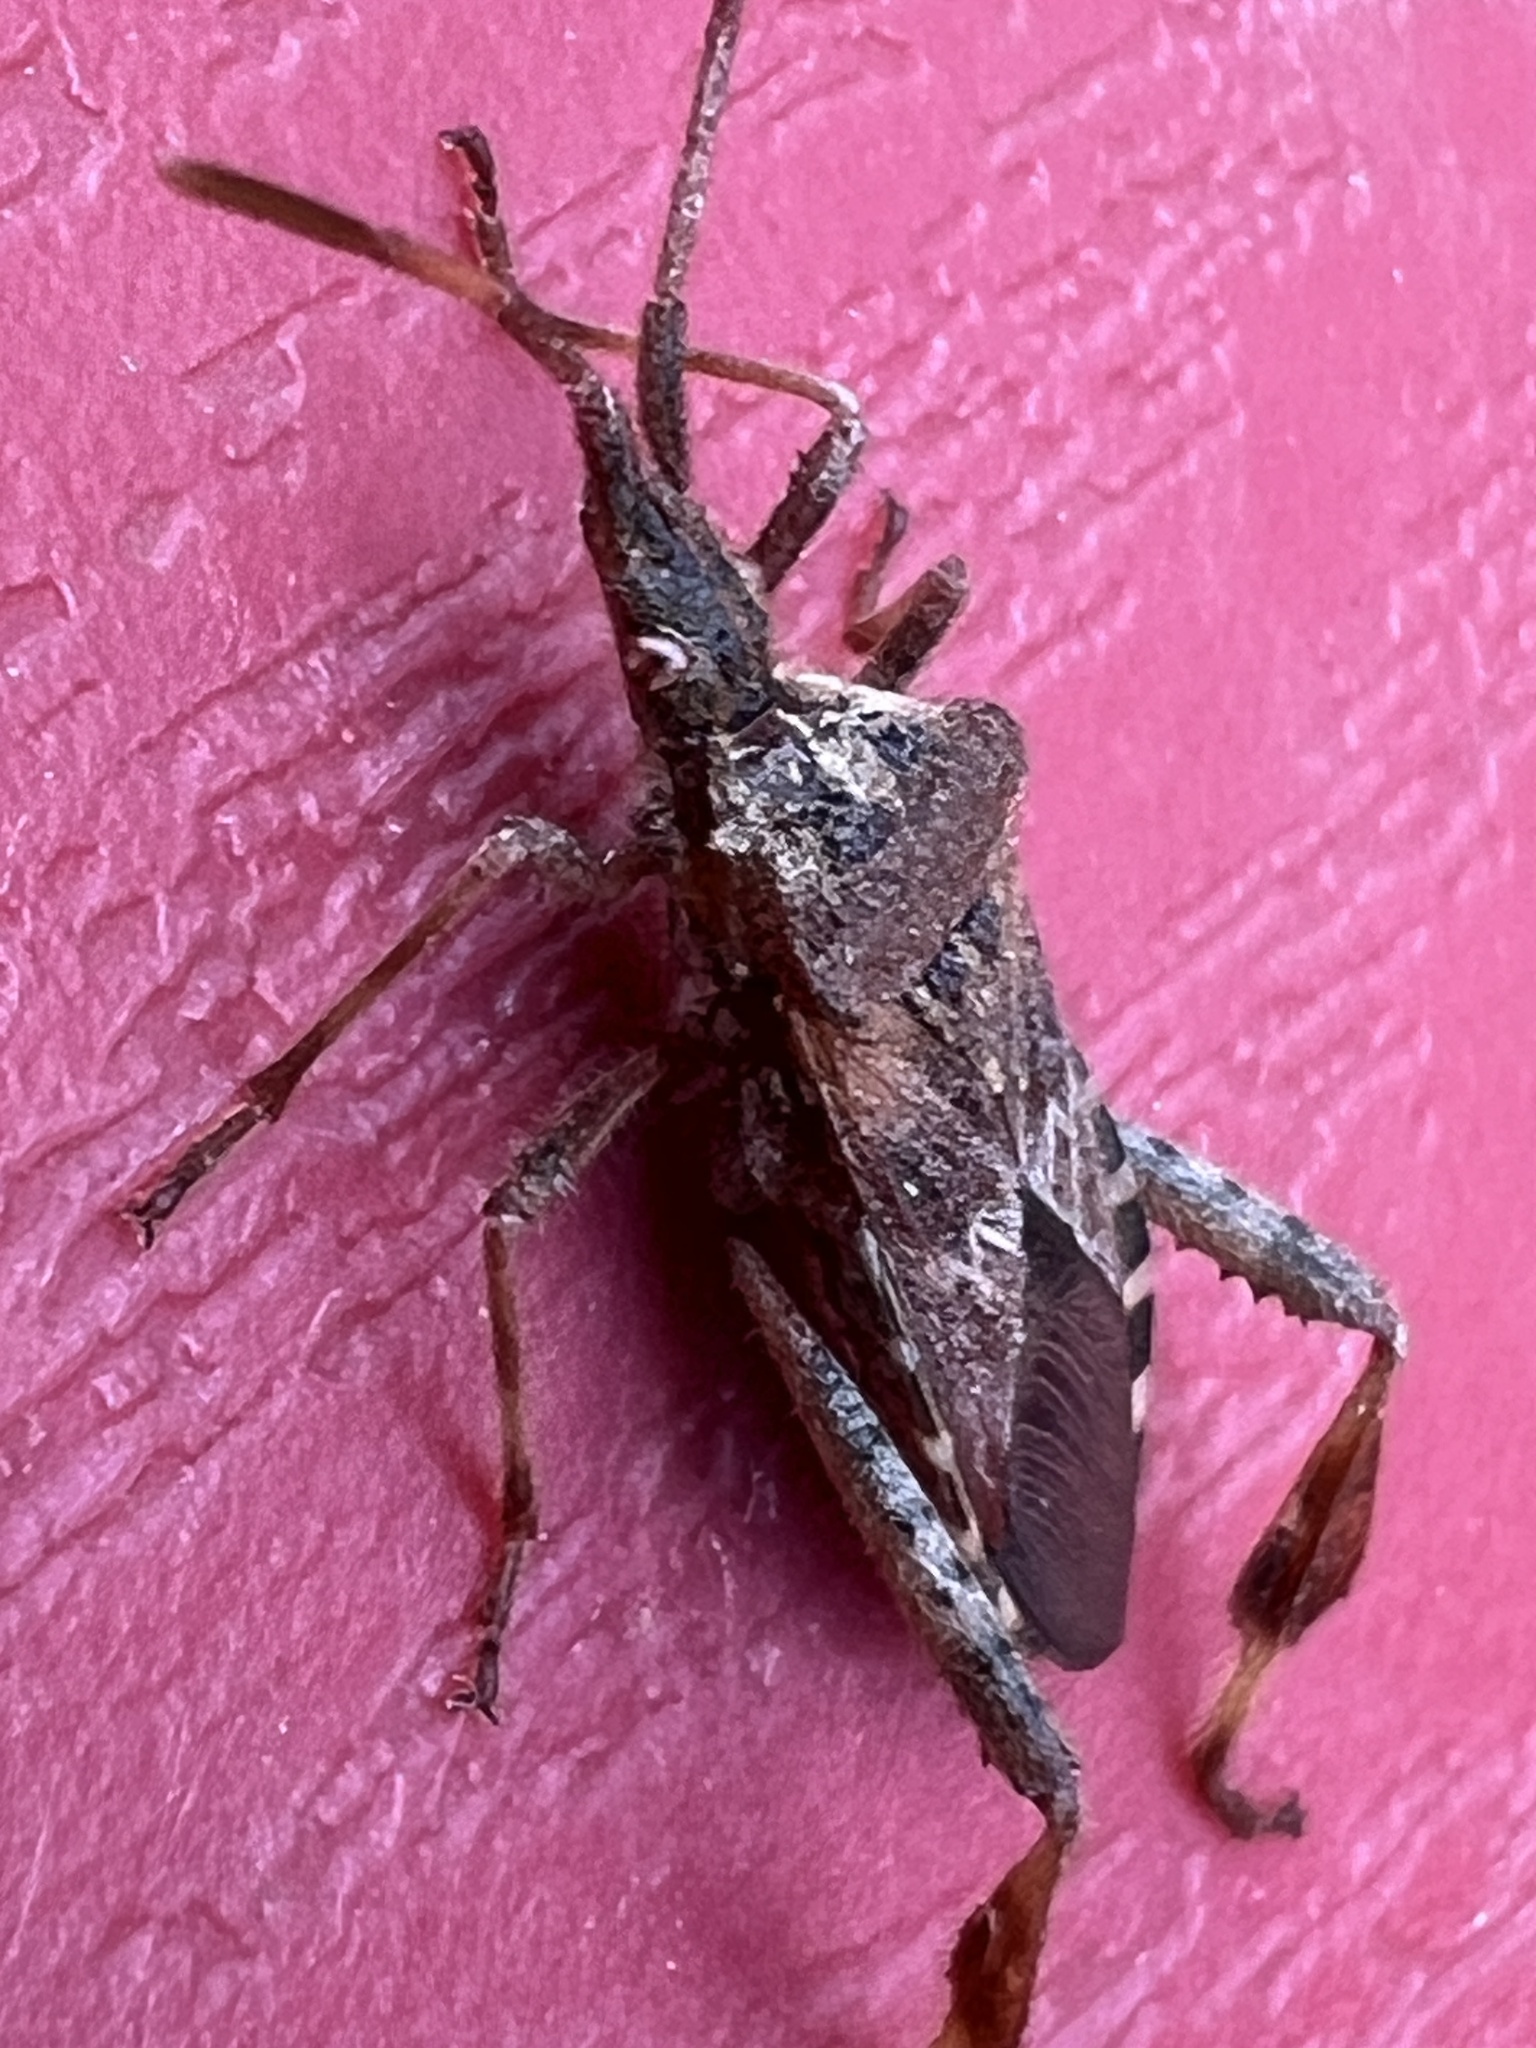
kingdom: Animalia
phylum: Arthropoda
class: Insecta
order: Hemiptera
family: Coreidae
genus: Leptoglossus
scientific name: Leptoglossus occidentalis
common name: Western conifer-seed bug
